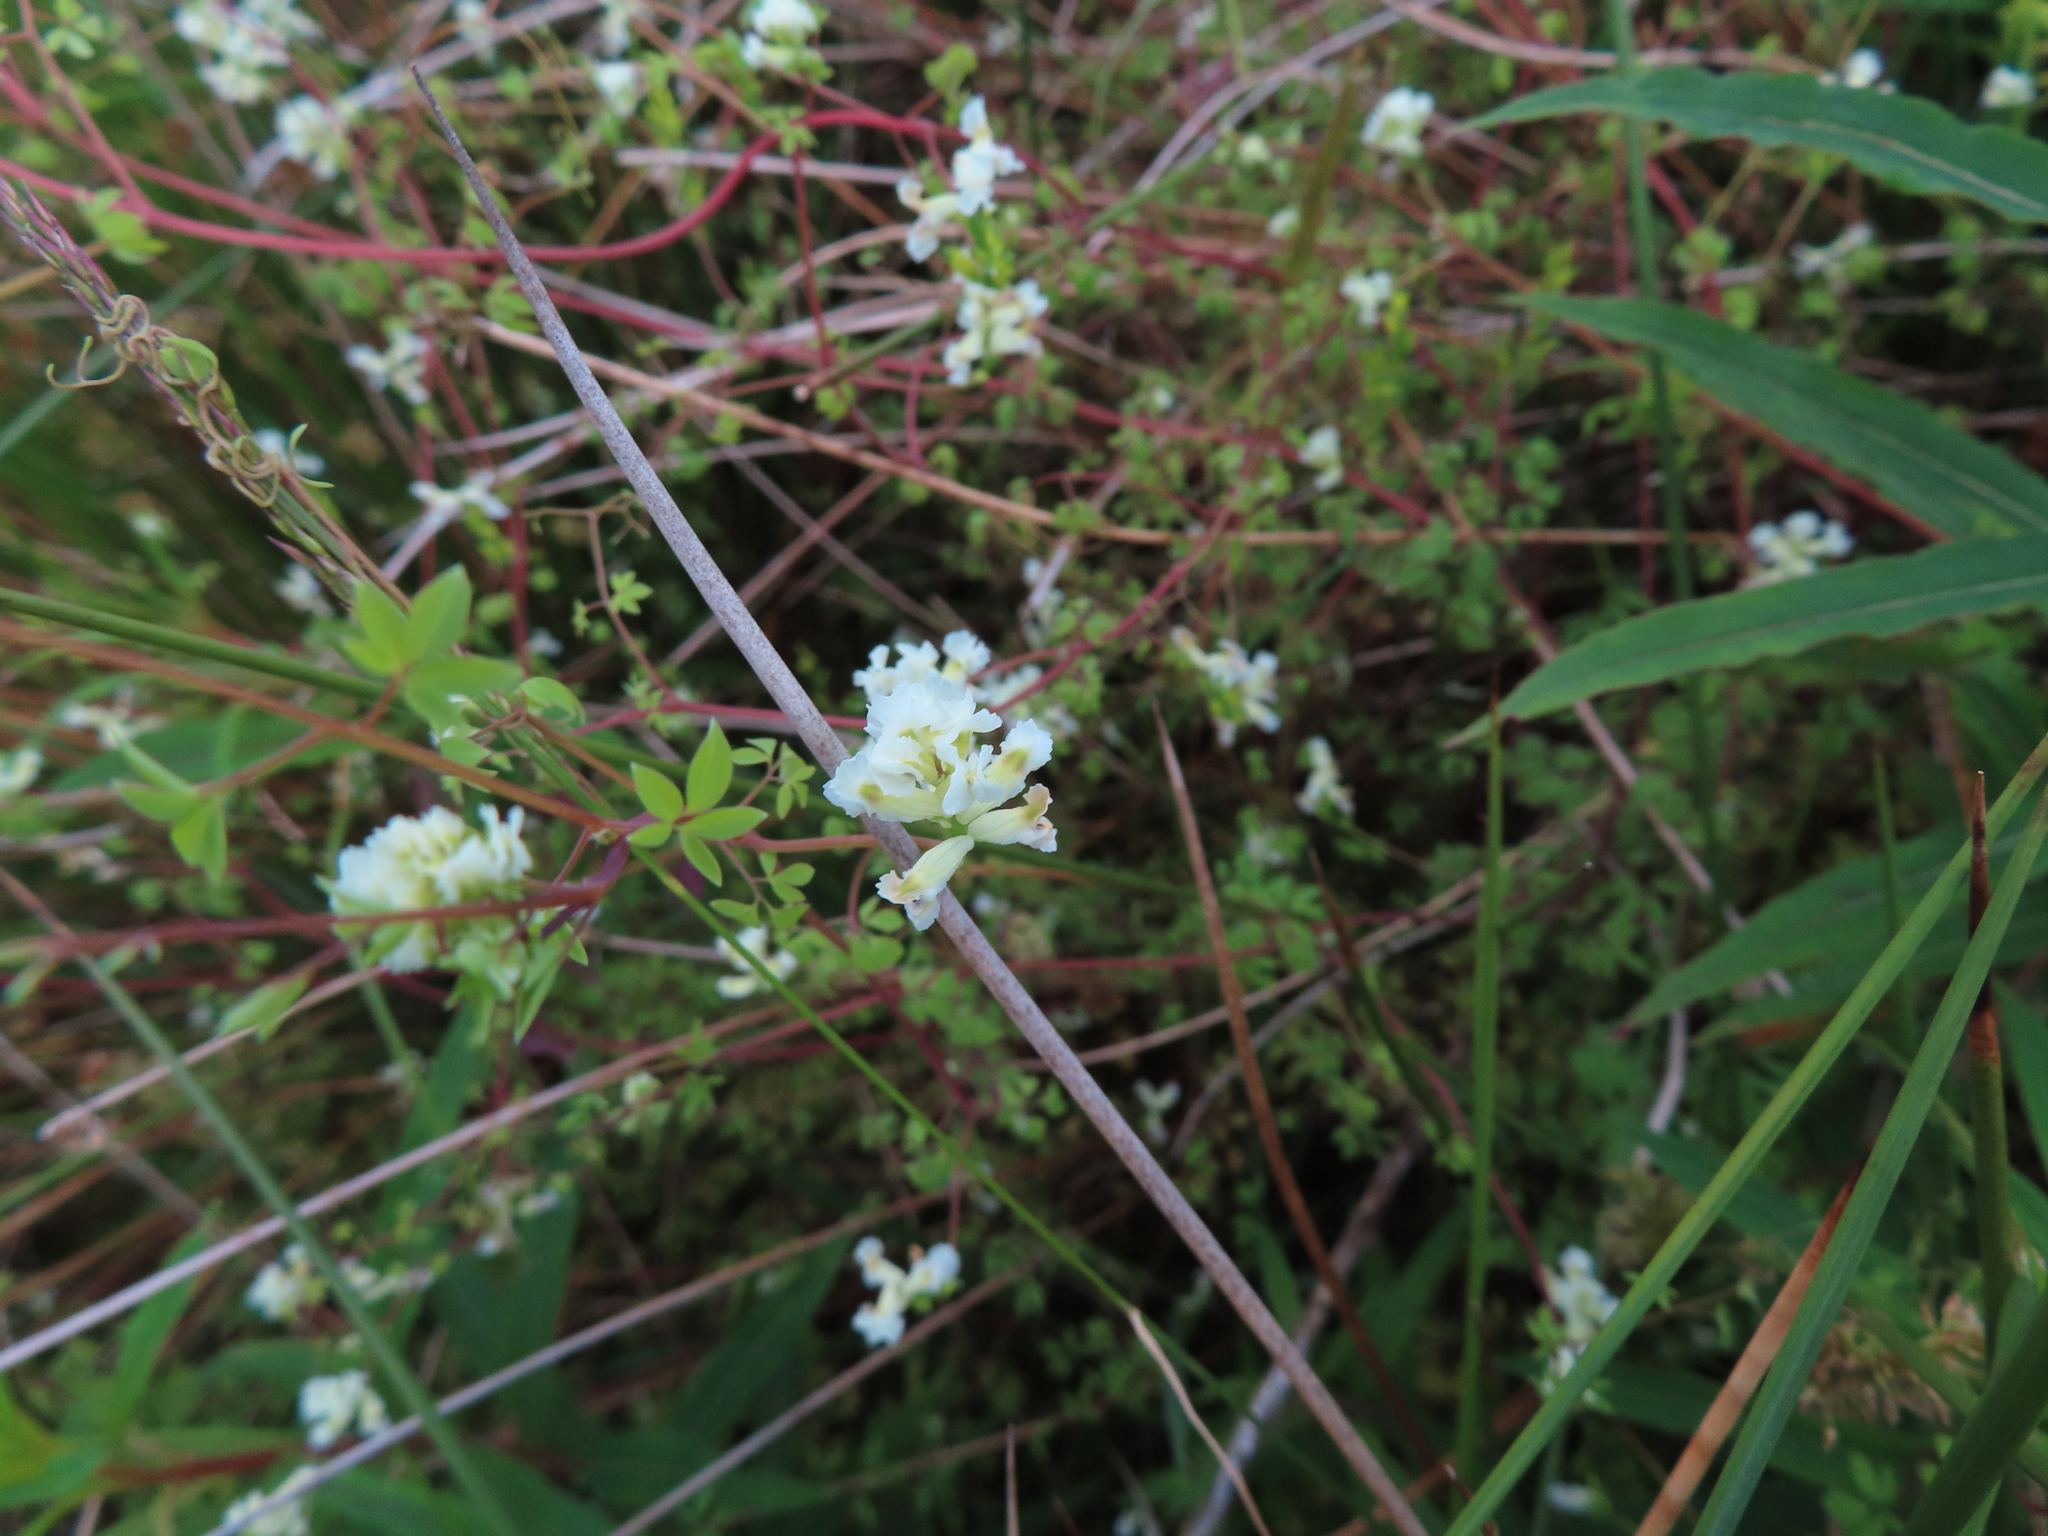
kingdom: Plantae
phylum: Tracheophyta
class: Magnoliopsida
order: Ranunculales
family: Papaveraceae
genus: Ceratocapnos
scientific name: Ceratocapnos claviculata
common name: Climbing corydalis
